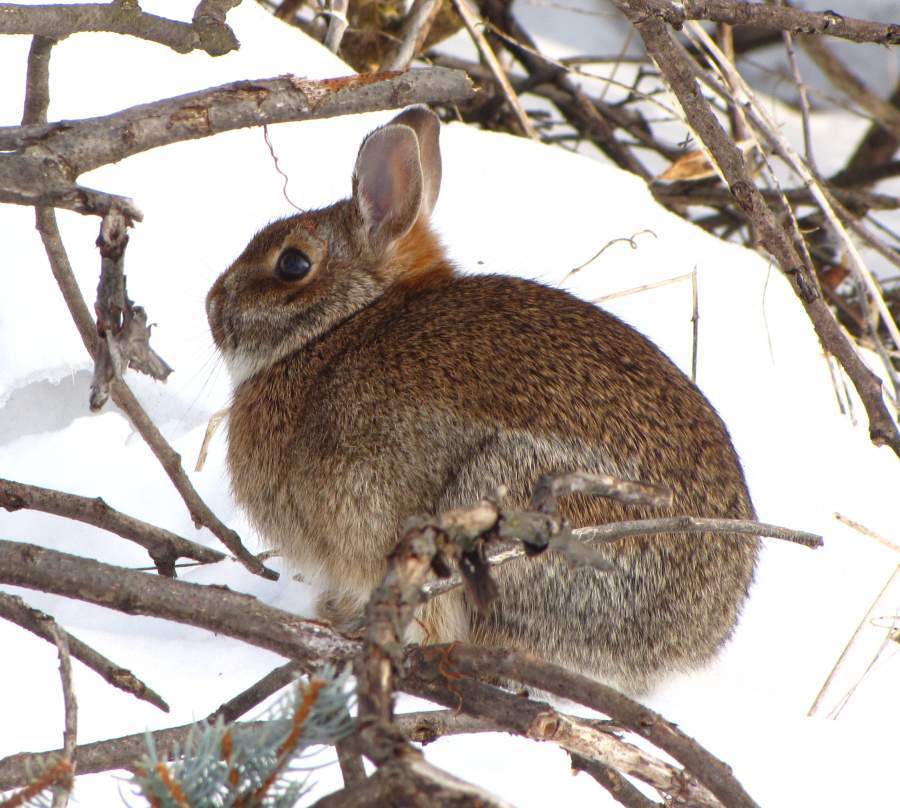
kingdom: Animalia
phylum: Chordata
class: Mammalia
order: Lagomorpha
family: Leporidae
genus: Sylvilagus
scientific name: Sylvilagus floridanus
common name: Eastern cottontail
